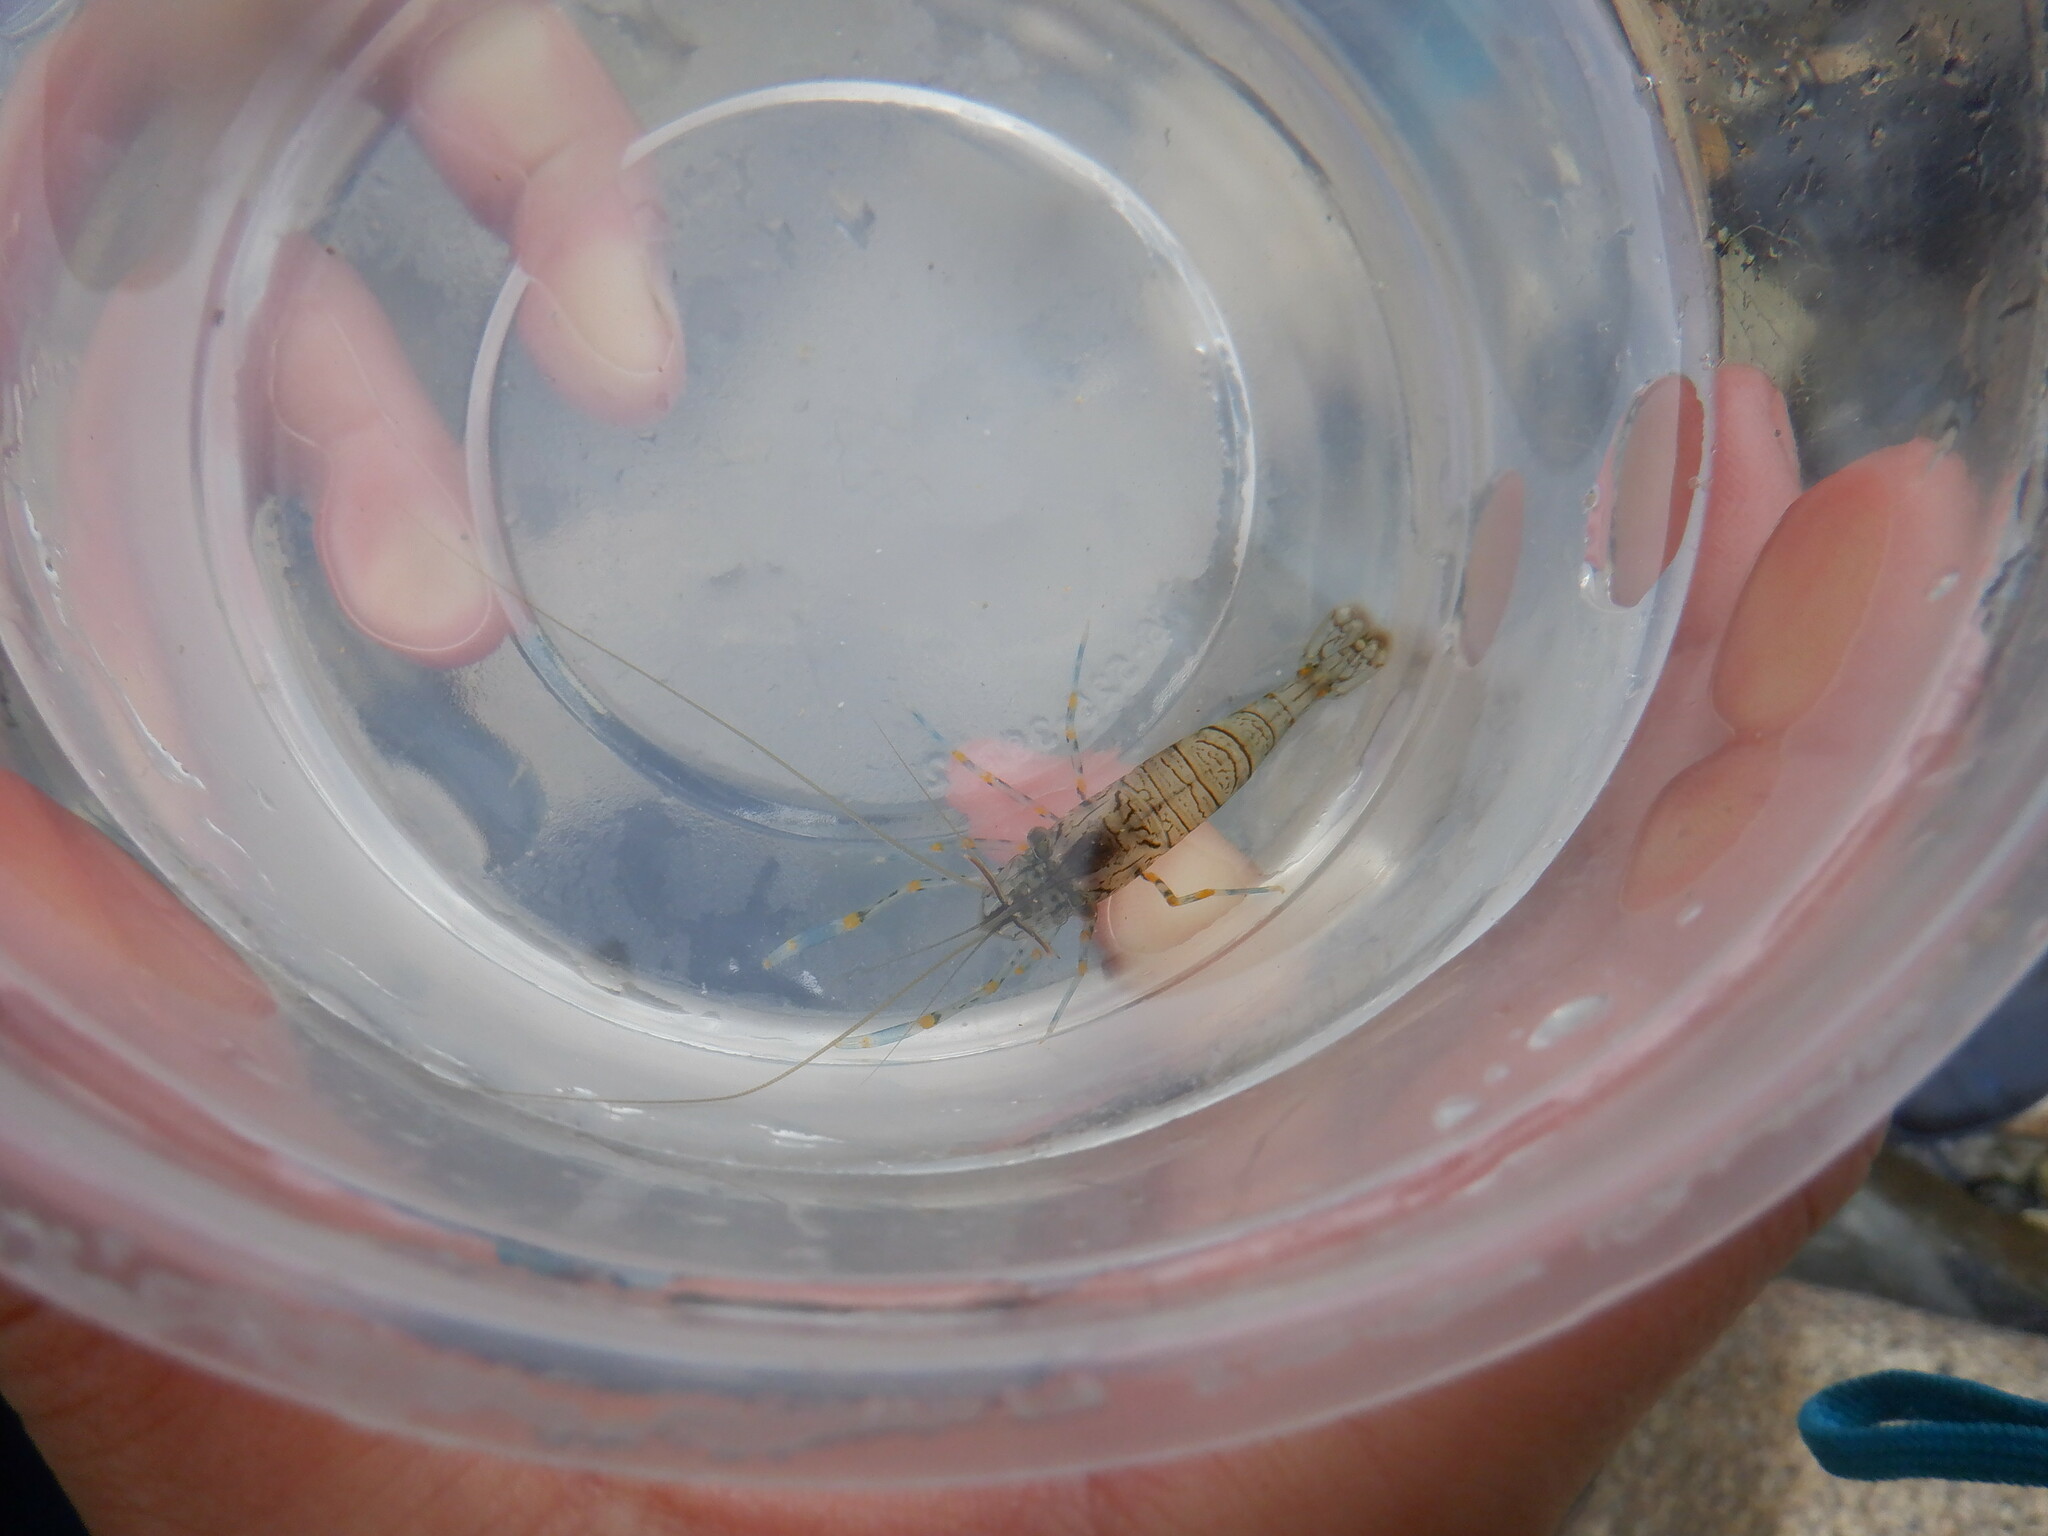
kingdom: Animalia
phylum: Arthropoda
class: Malacostraca
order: Decapoda
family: Palaemonidae
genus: Palaemon
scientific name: Palaemon elegans
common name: Grass prawm
